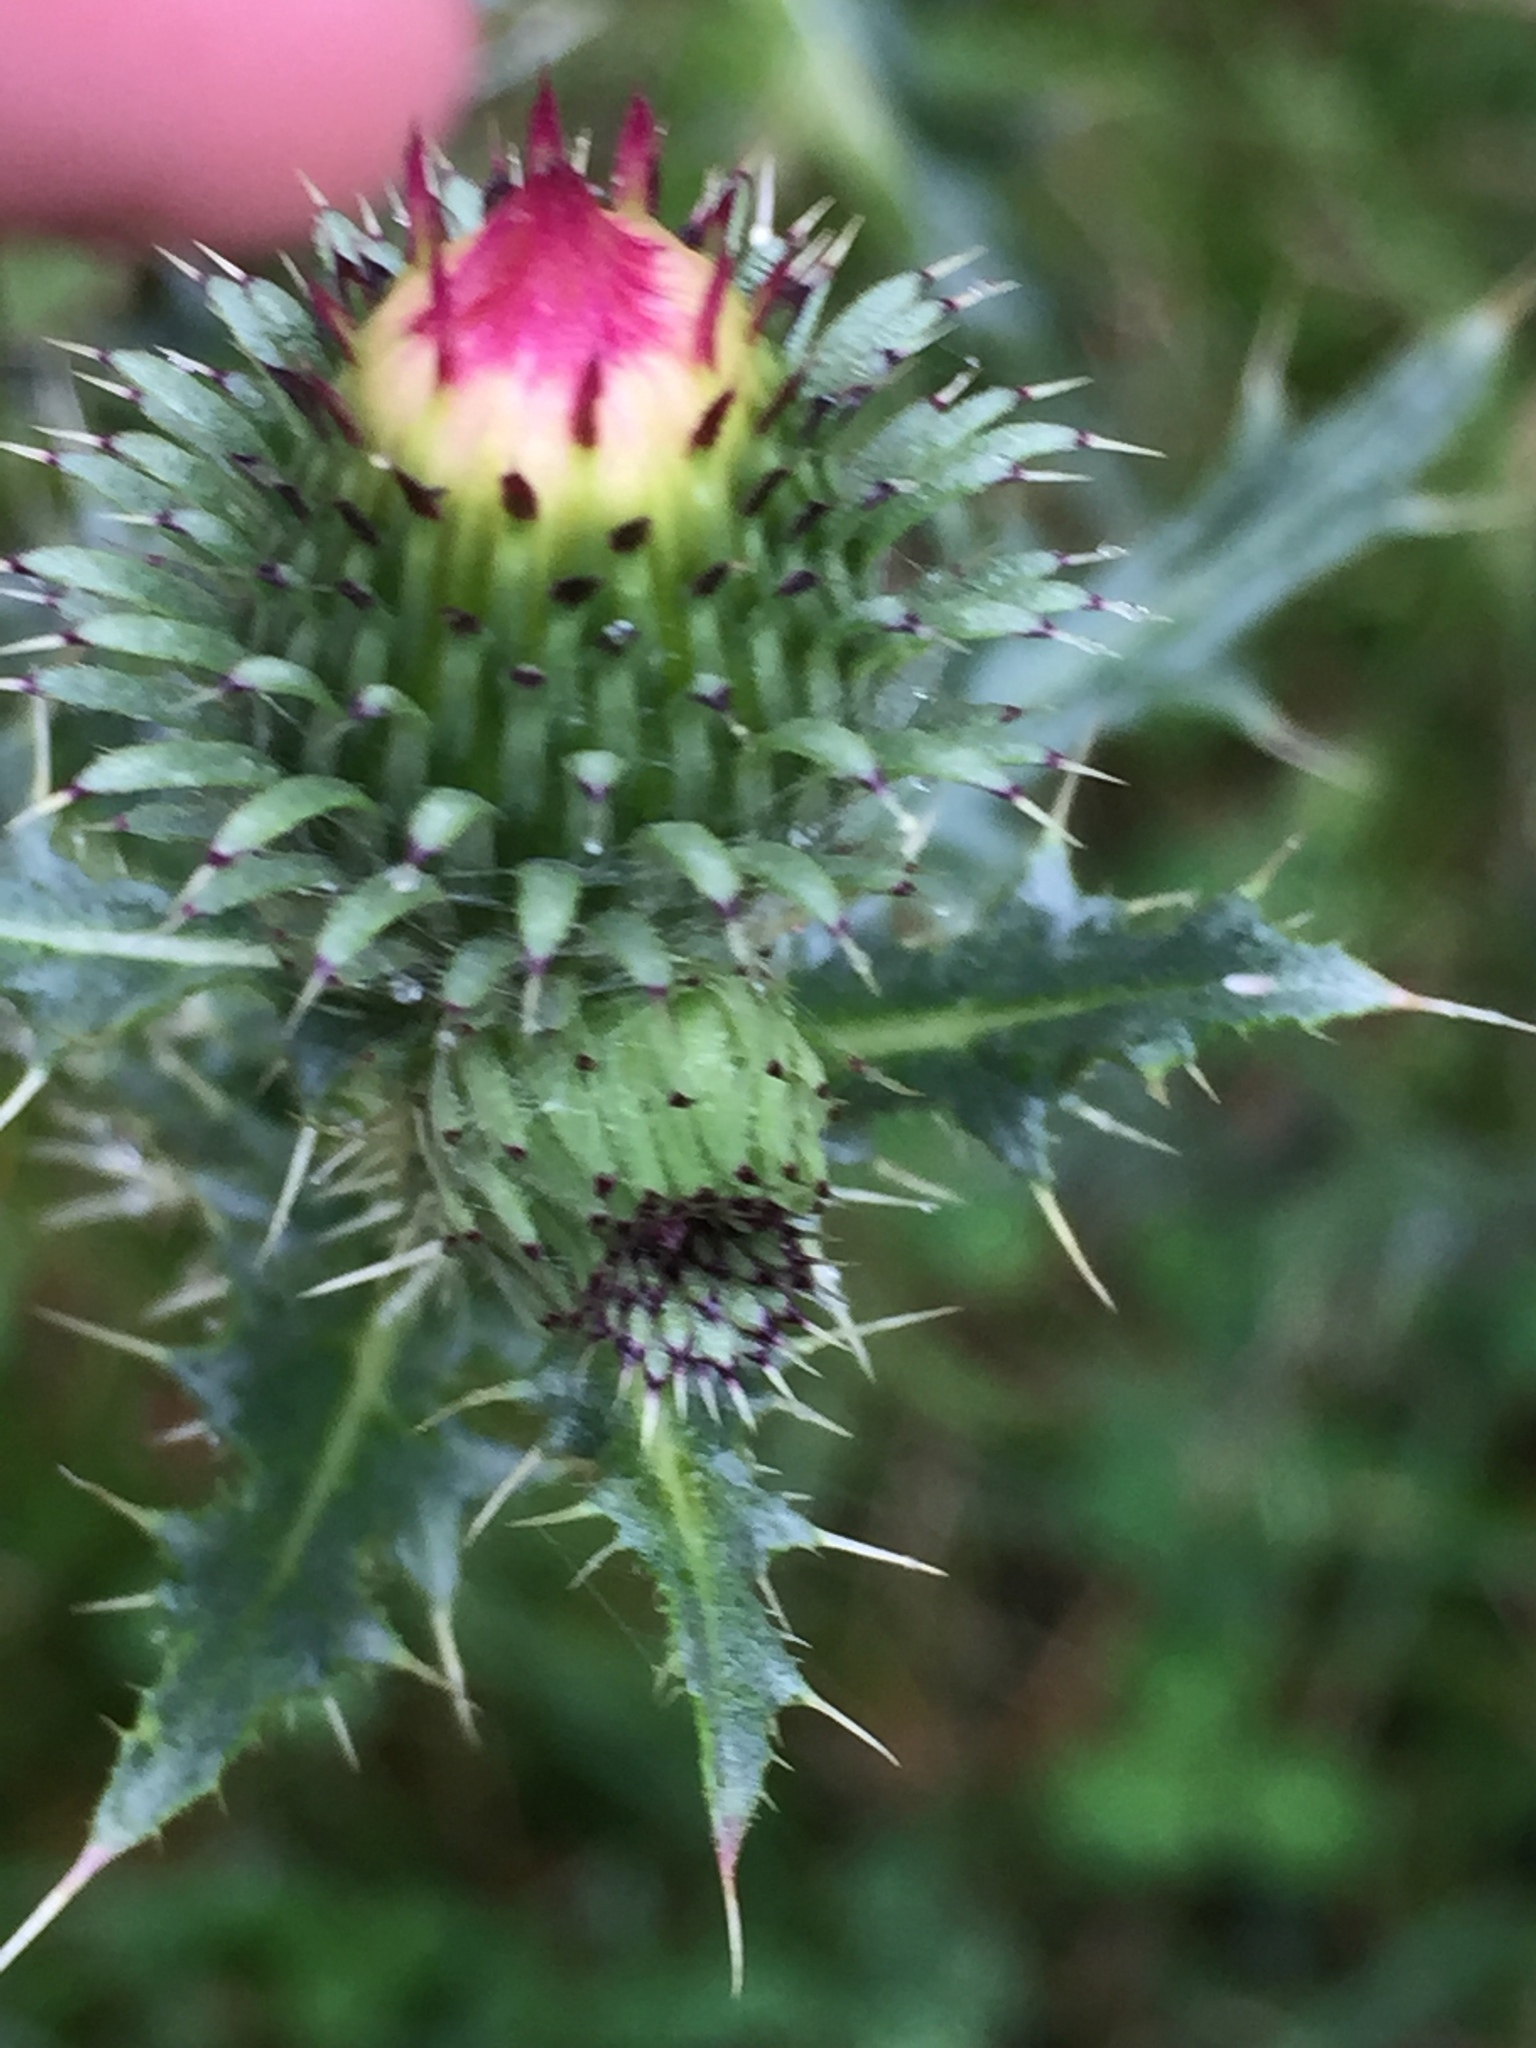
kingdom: Plantae
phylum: Tracheophyta
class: Magnoliopsida
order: Asterales
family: Asteraceae
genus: Carduus
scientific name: Carduus acanthoides
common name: Plumeless thistle
